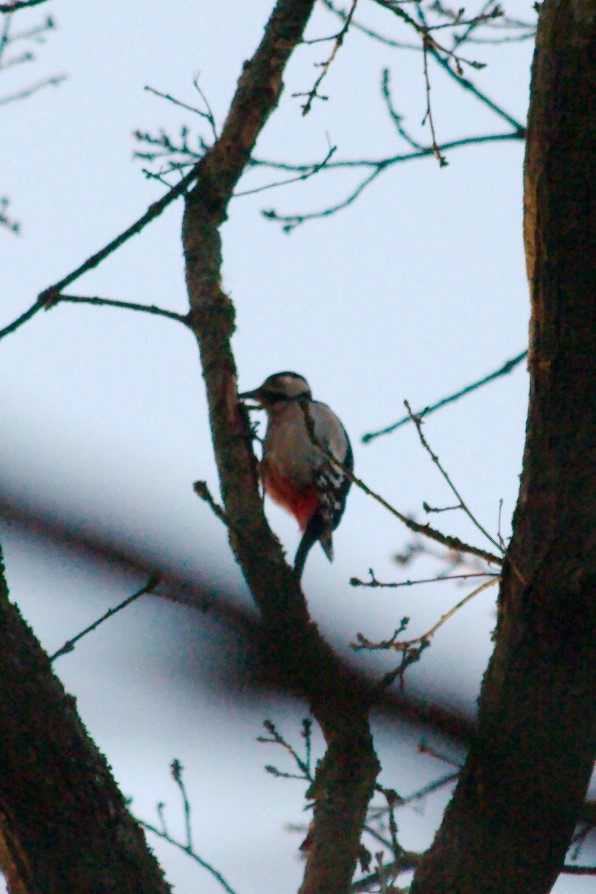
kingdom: Animalia
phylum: Chordata
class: Aves
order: Piciformes
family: Picidae
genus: Dendrocopos
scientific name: Dendrocopos major
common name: Great spotted woodpecker
